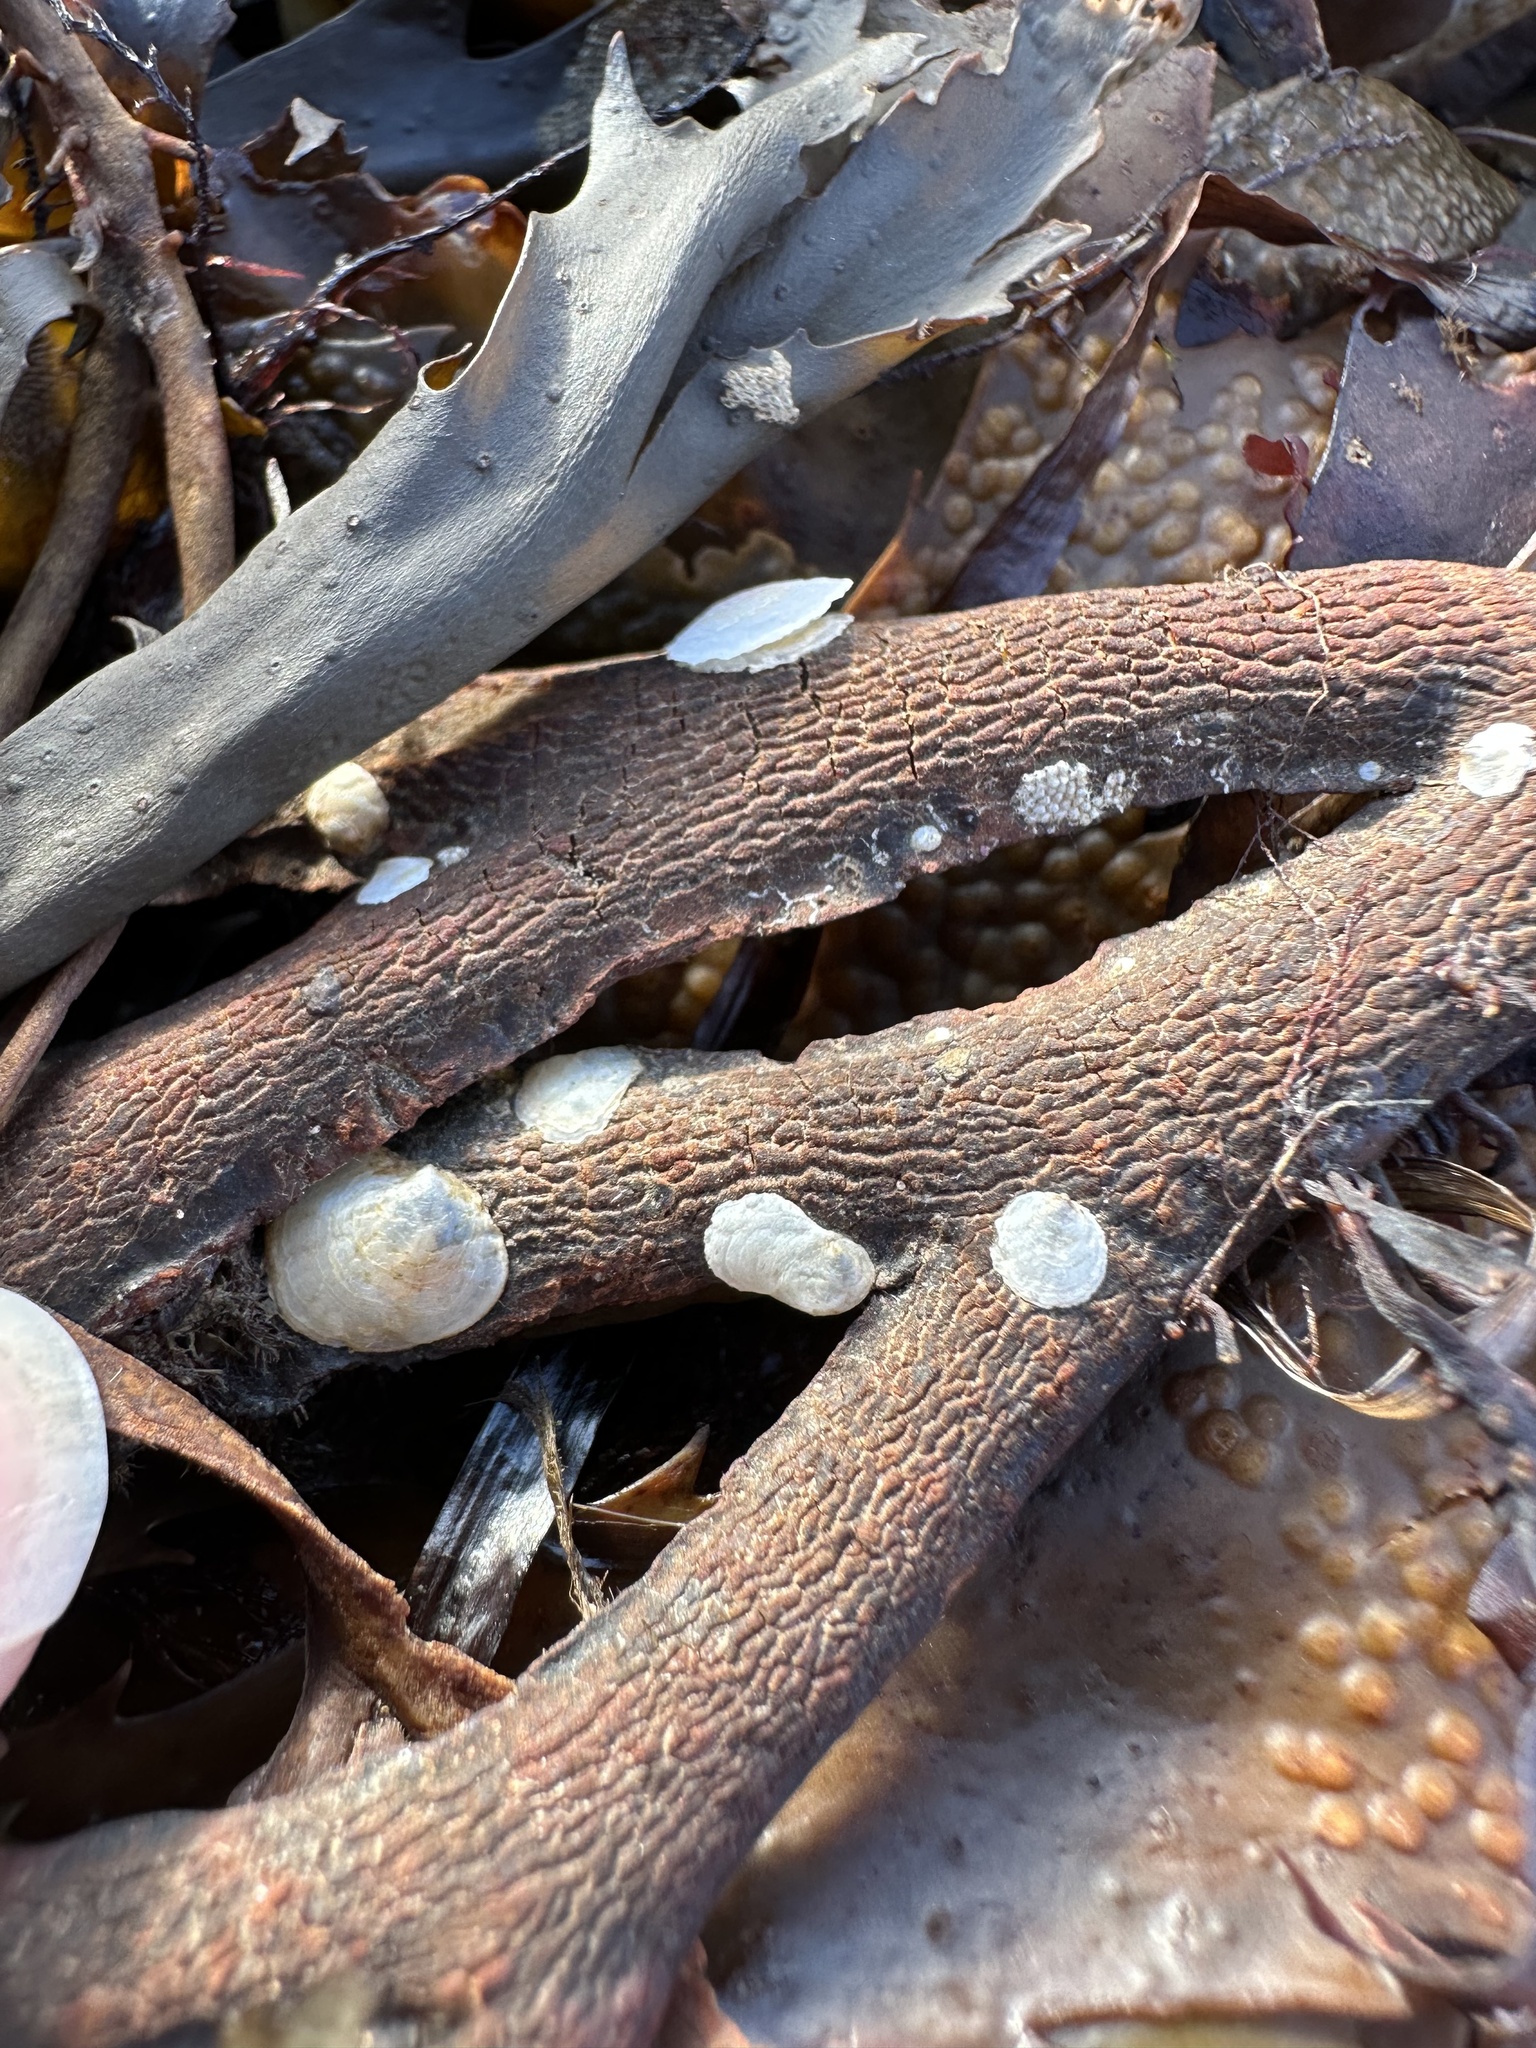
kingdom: Animalia
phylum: Mollusca
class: Bivalvia
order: Pectinida
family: Anomiidae
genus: Heteranomia
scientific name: Heteranomia squamula
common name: Prickly jingle
